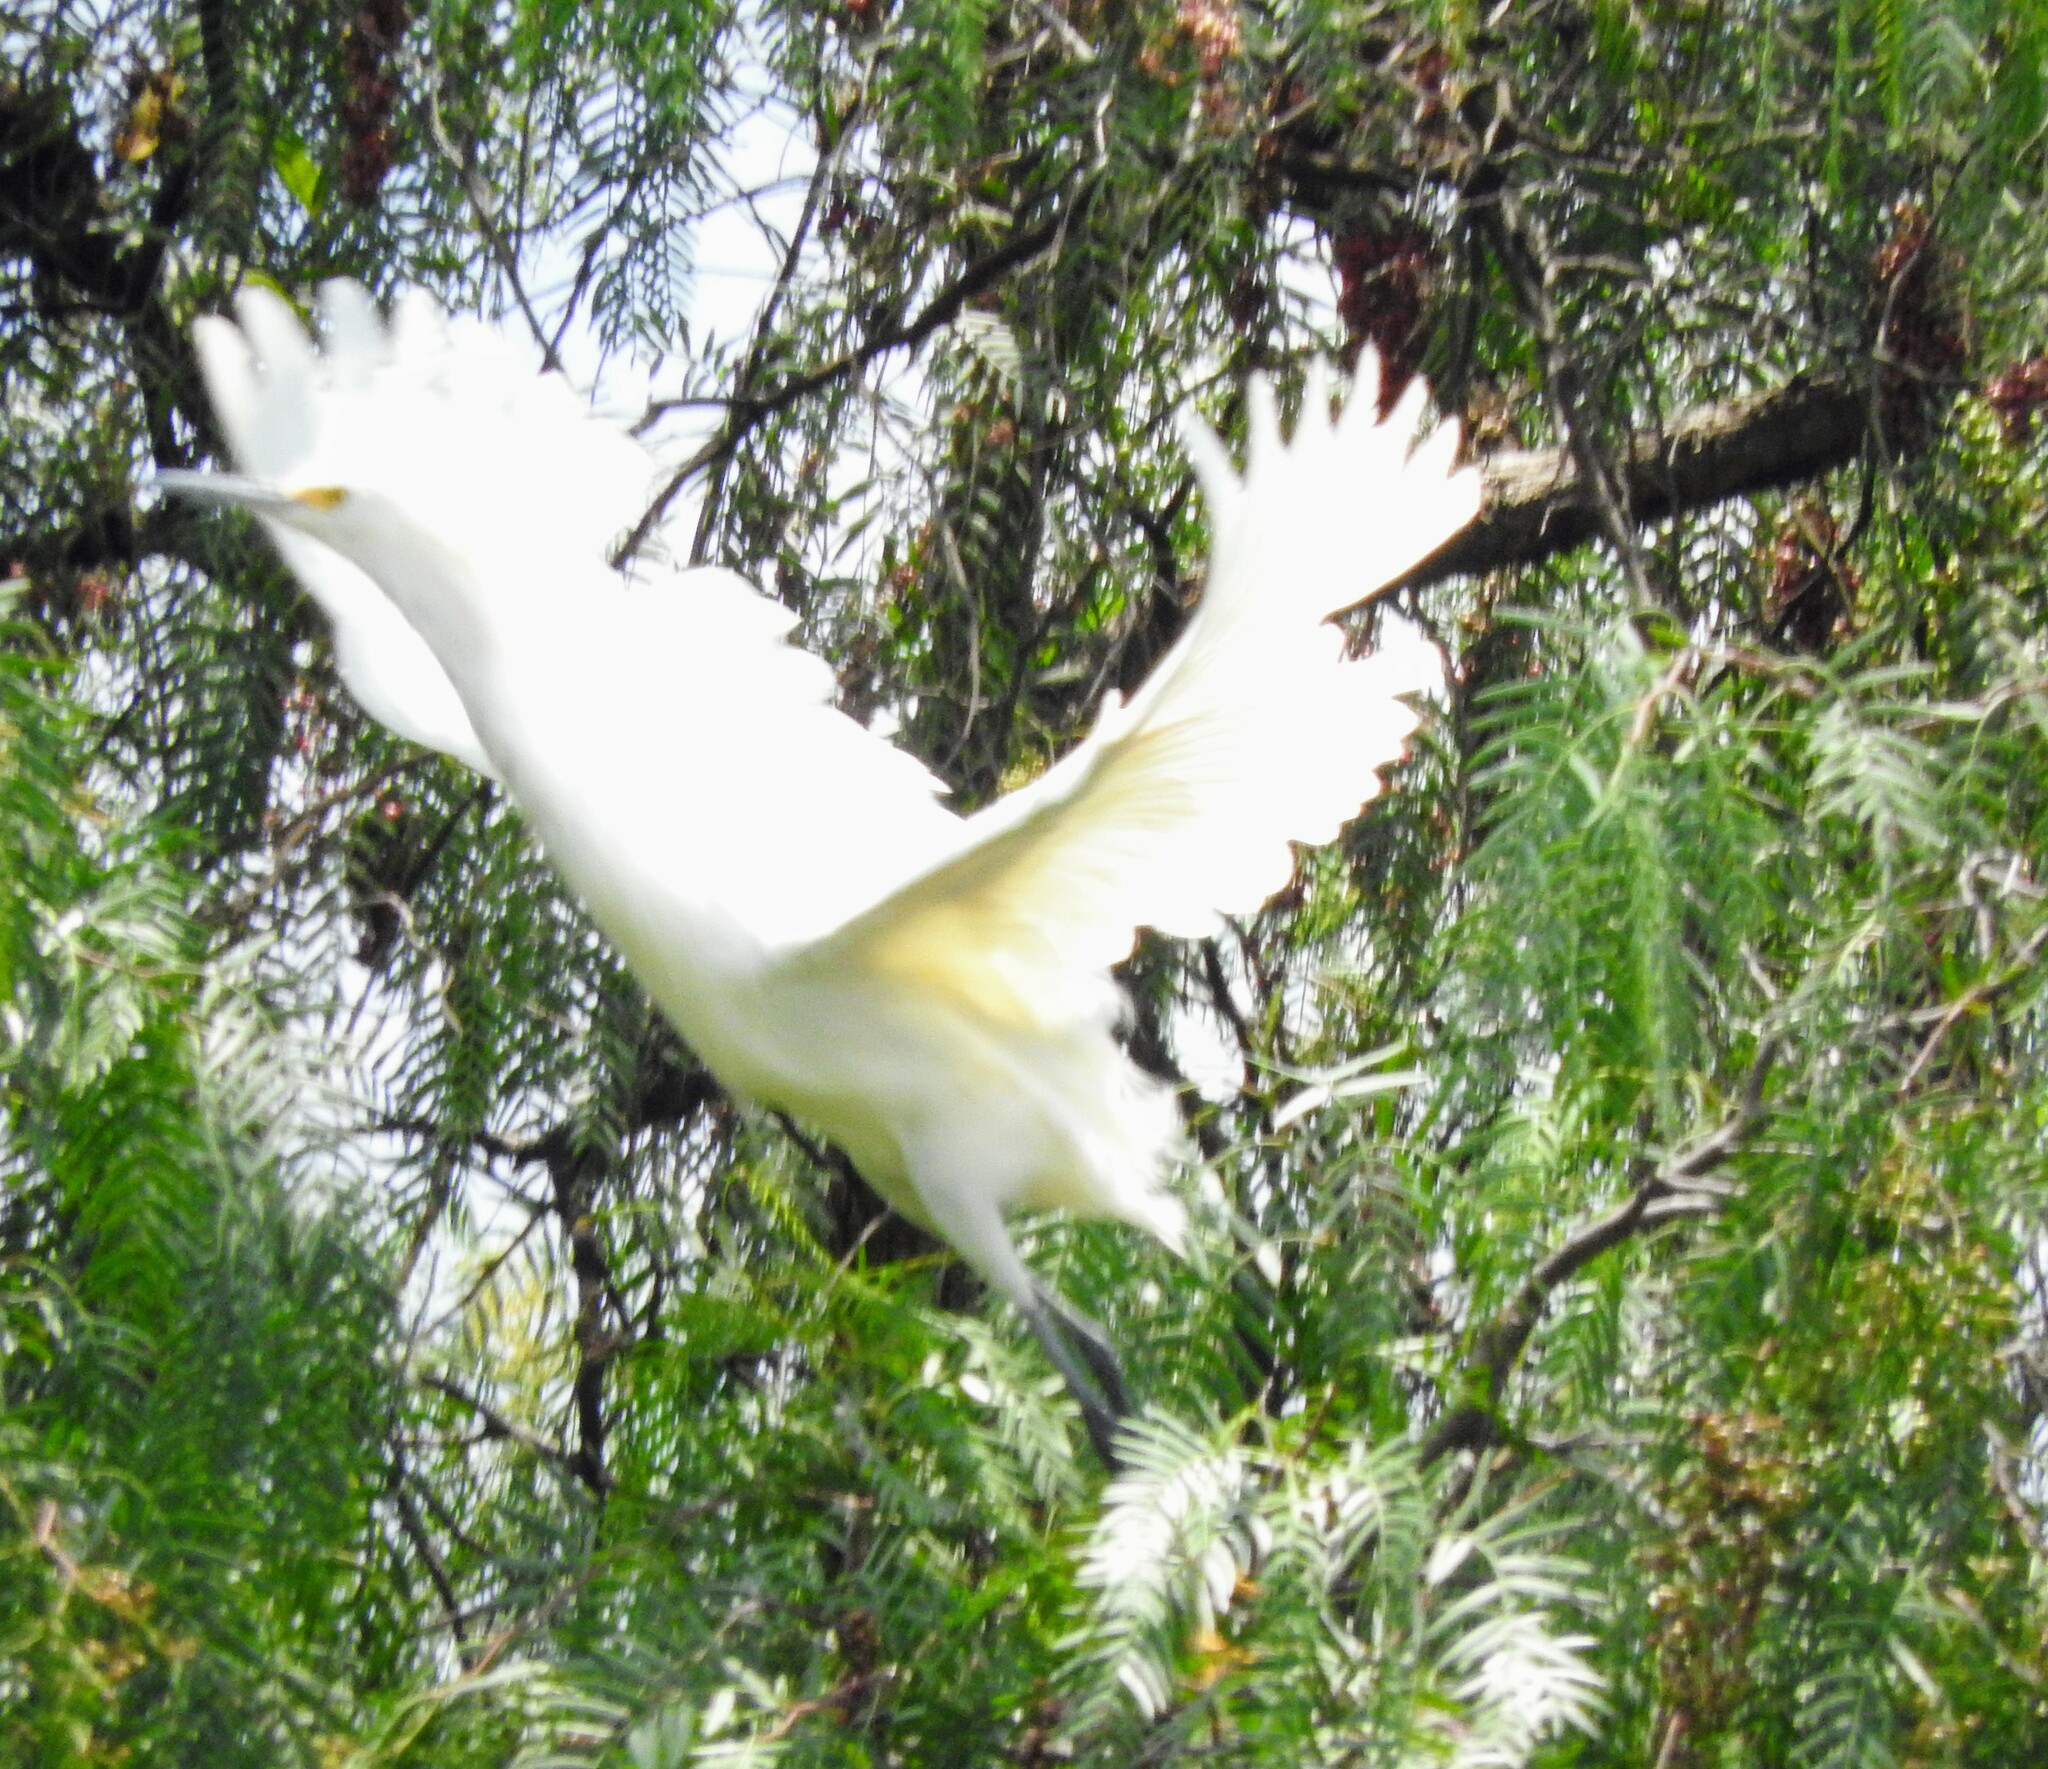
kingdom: Animalia
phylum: Chordata
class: Aves
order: Pelecaniformes
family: Ardeidae
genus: Egretta
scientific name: Egretta thula
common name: Snowy egret
